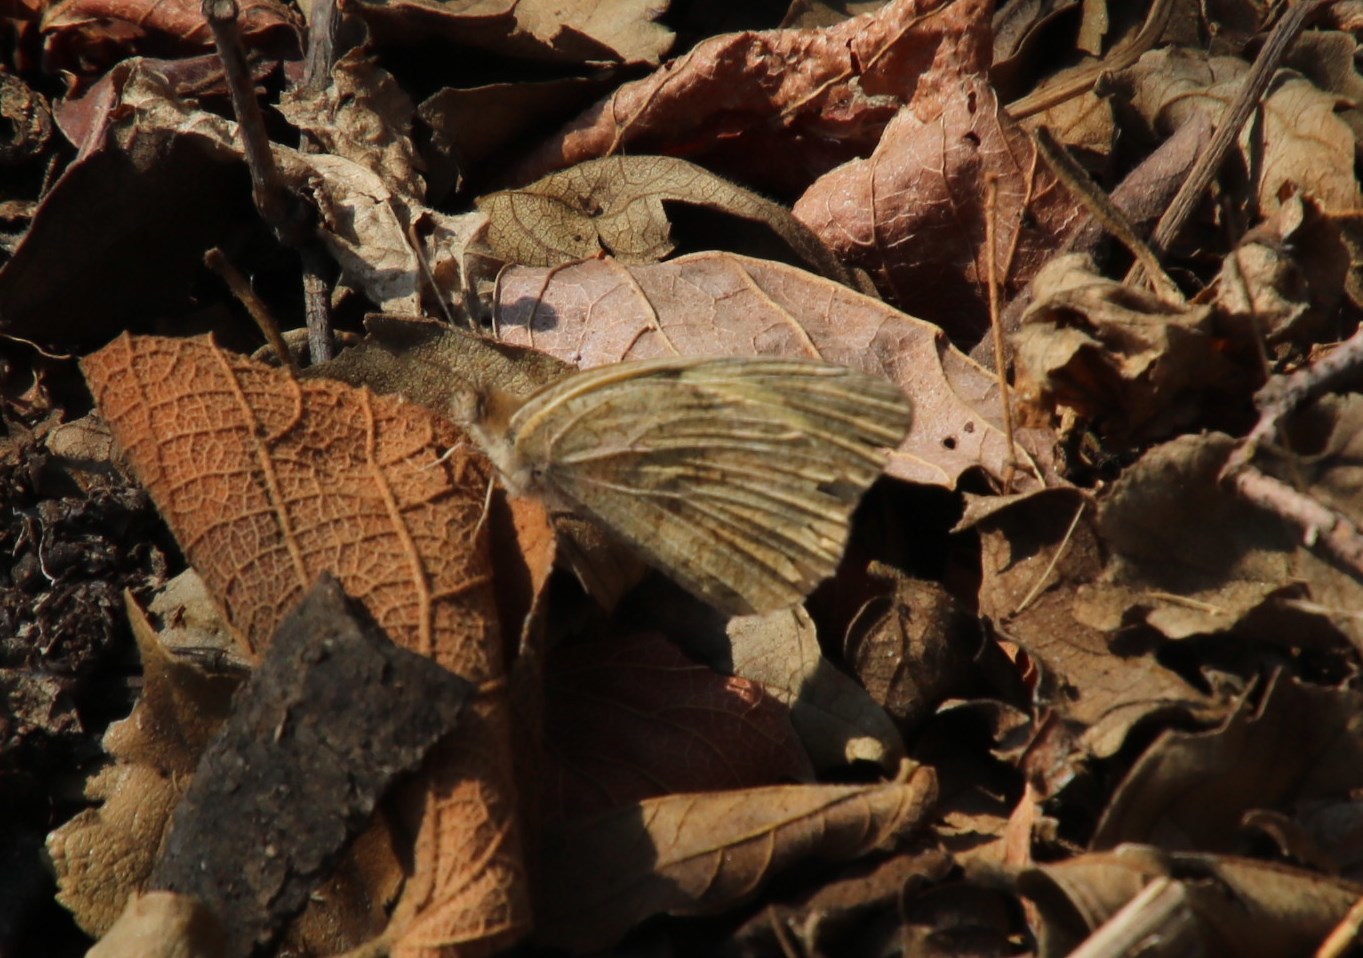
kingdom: Animalia
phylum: Arthropoda
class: Insecta
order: Lepidoptera
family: Pieridae
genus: Pinacopteryx
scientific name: Pinacopteryx eriphia
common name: Zebra white
